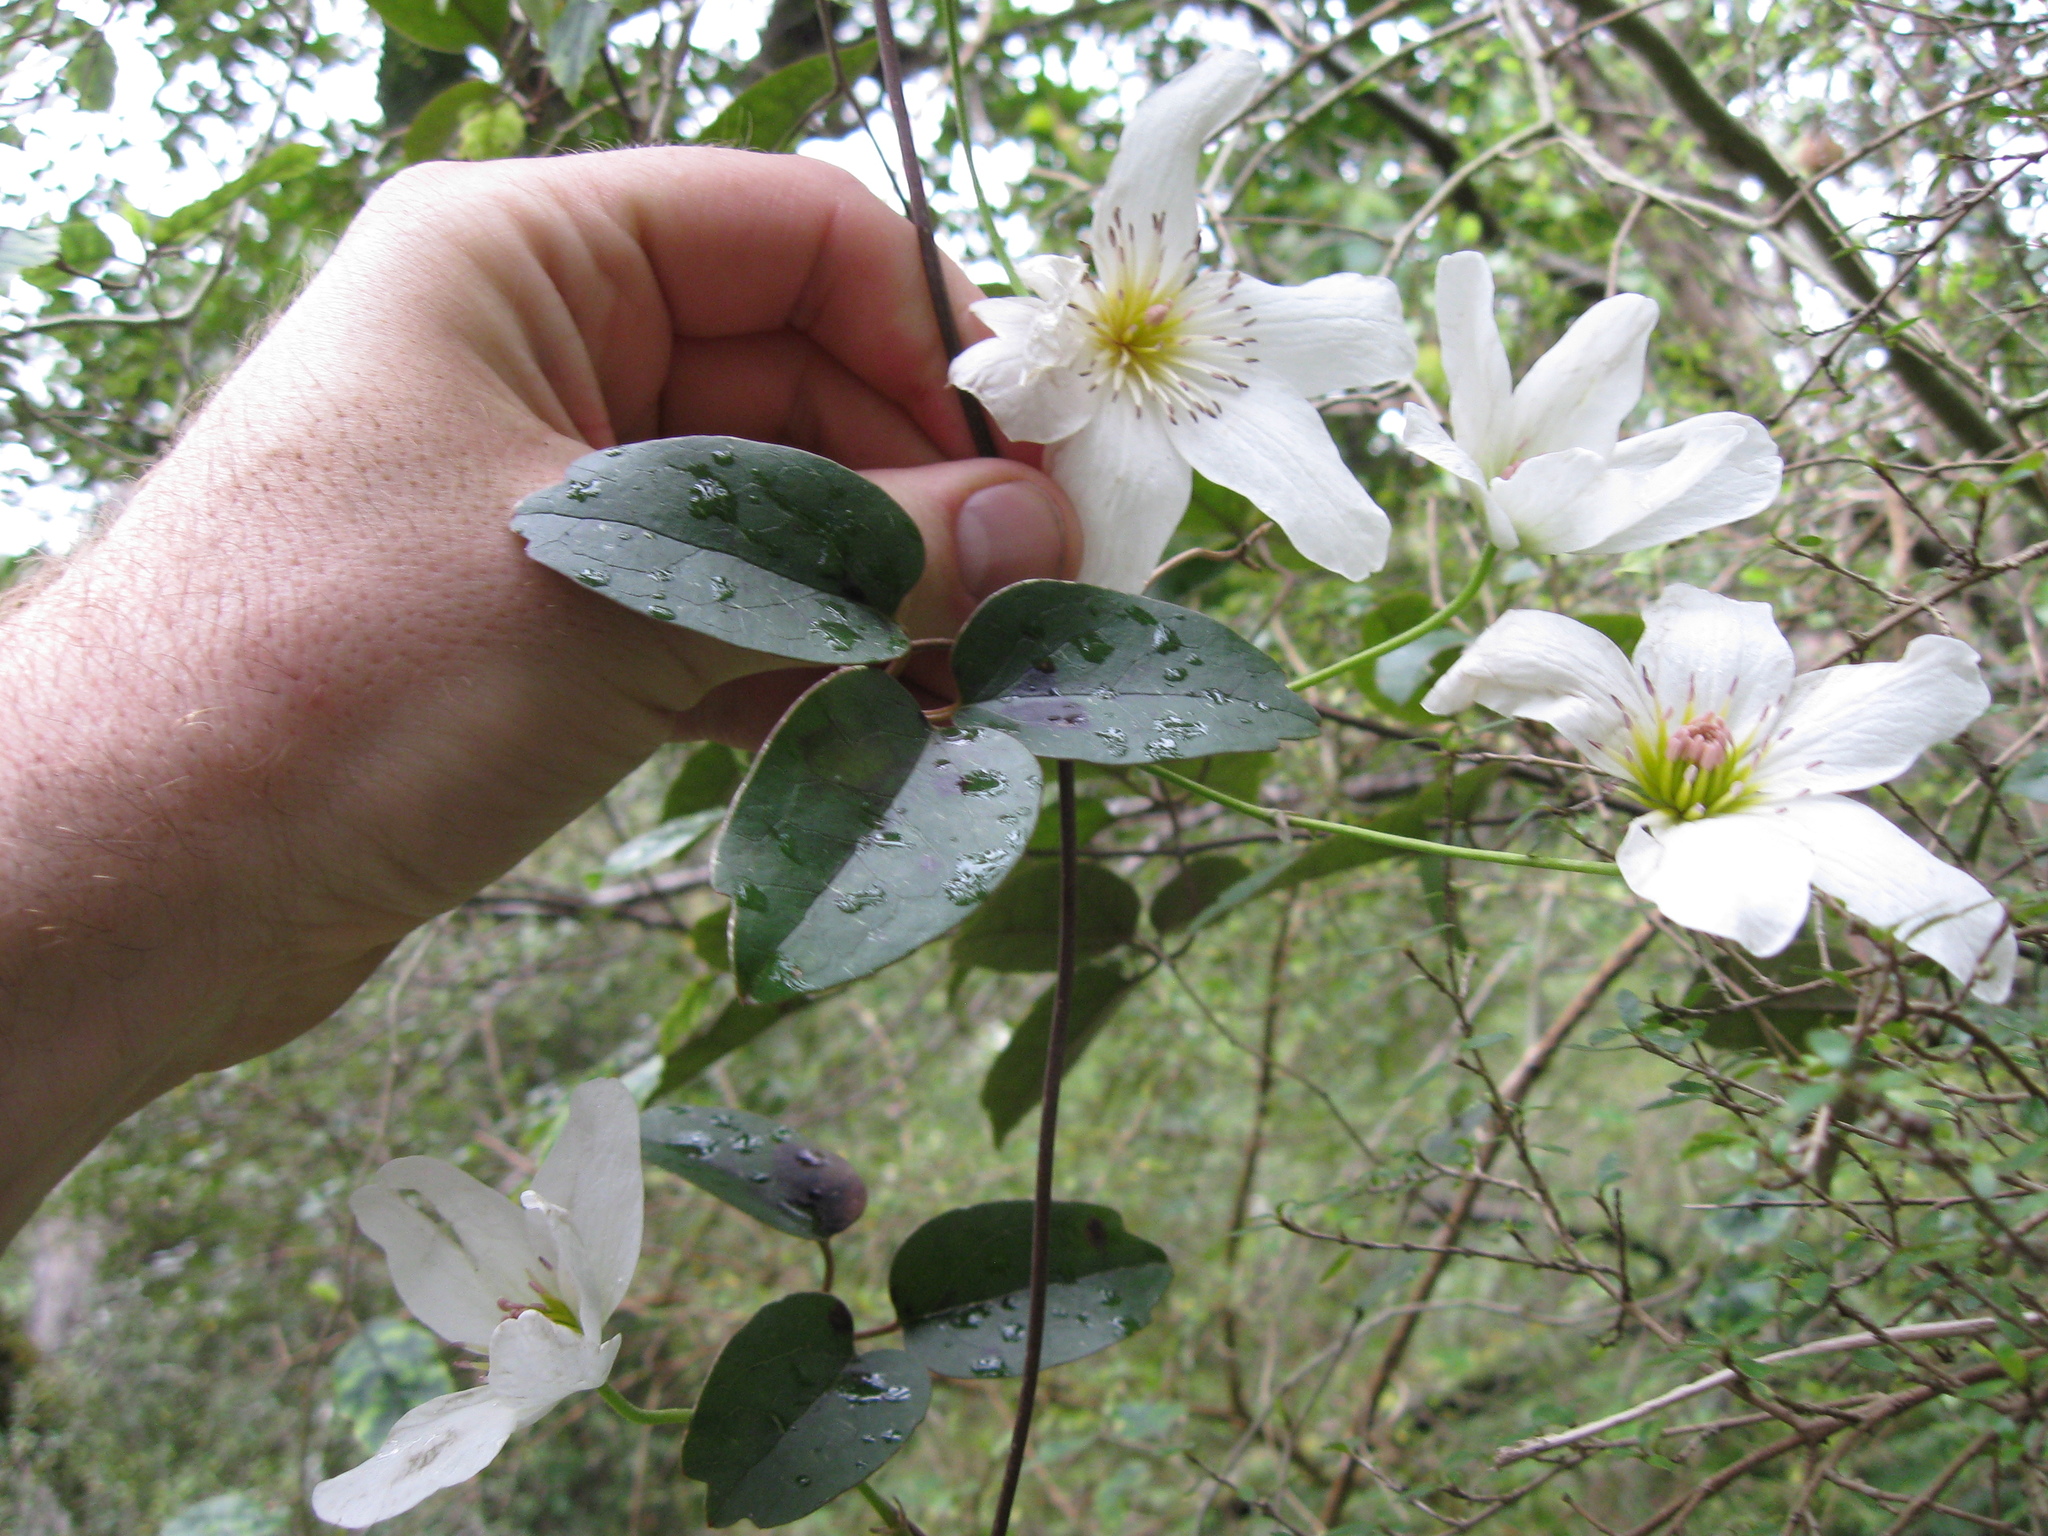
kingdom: Plantae
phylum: Tracheophyta
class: Magnoliopsida
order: Ranunculales
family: Ranunculaceae
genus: Clematis
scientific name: Clematis paniculata
